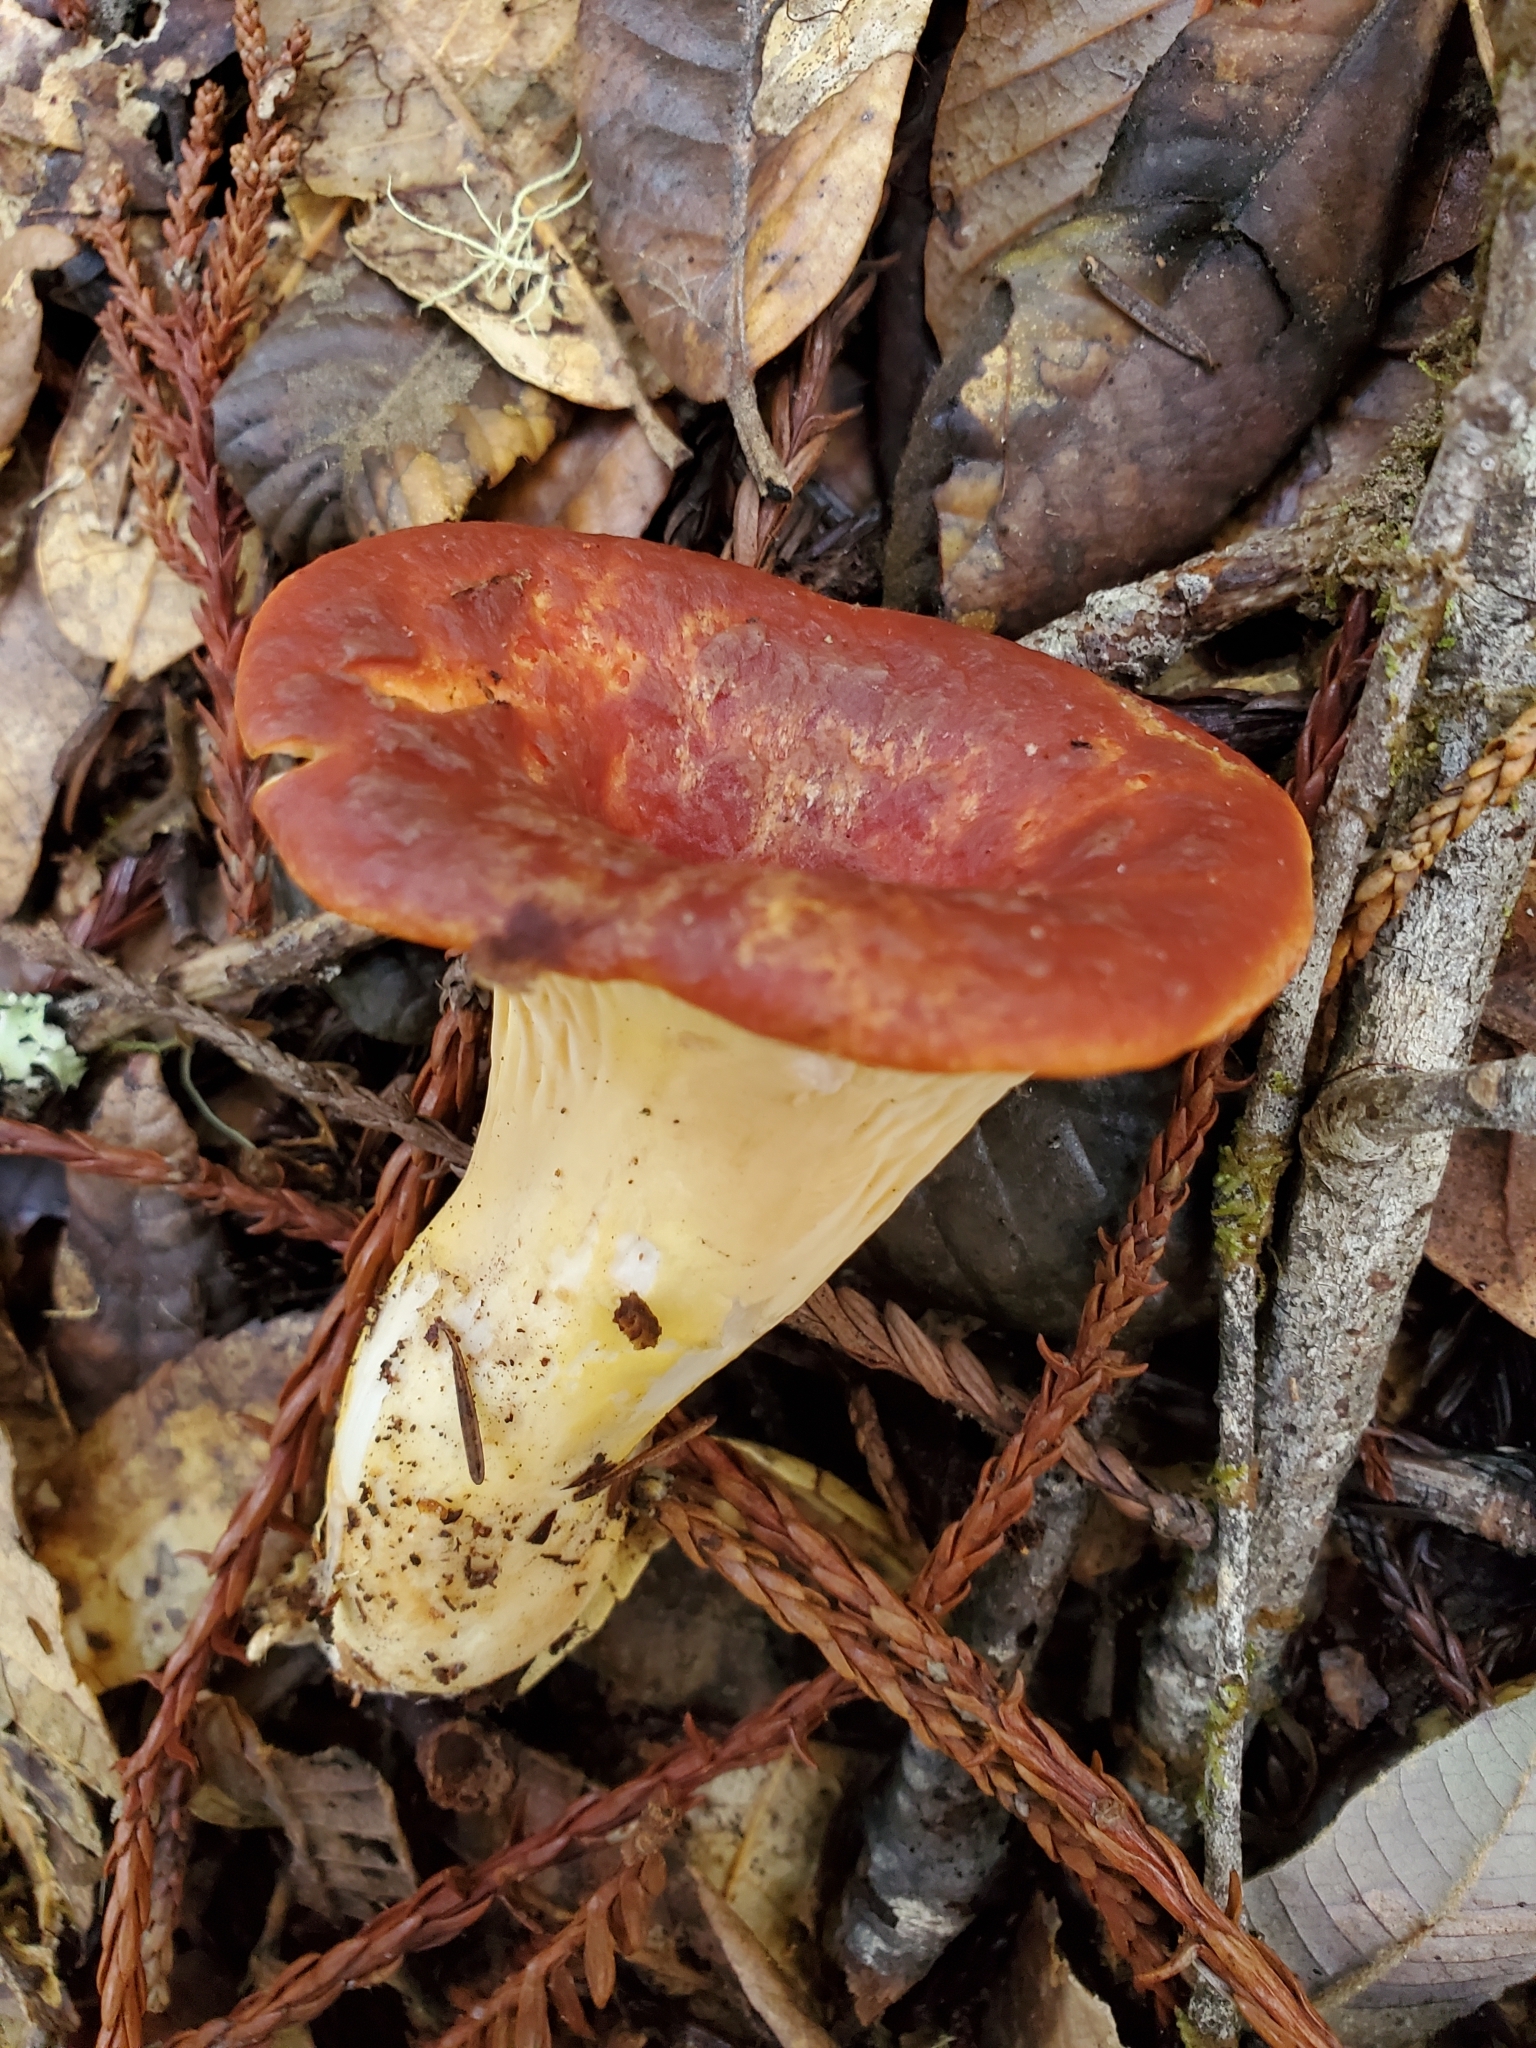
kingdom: Fungi
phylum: Basidiomycota
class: Agaricomycetes
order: Gomphales
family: Gomphaceae
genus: Turbinellus
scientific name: Turbinellus floccosus
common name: Scaly chanterelle
